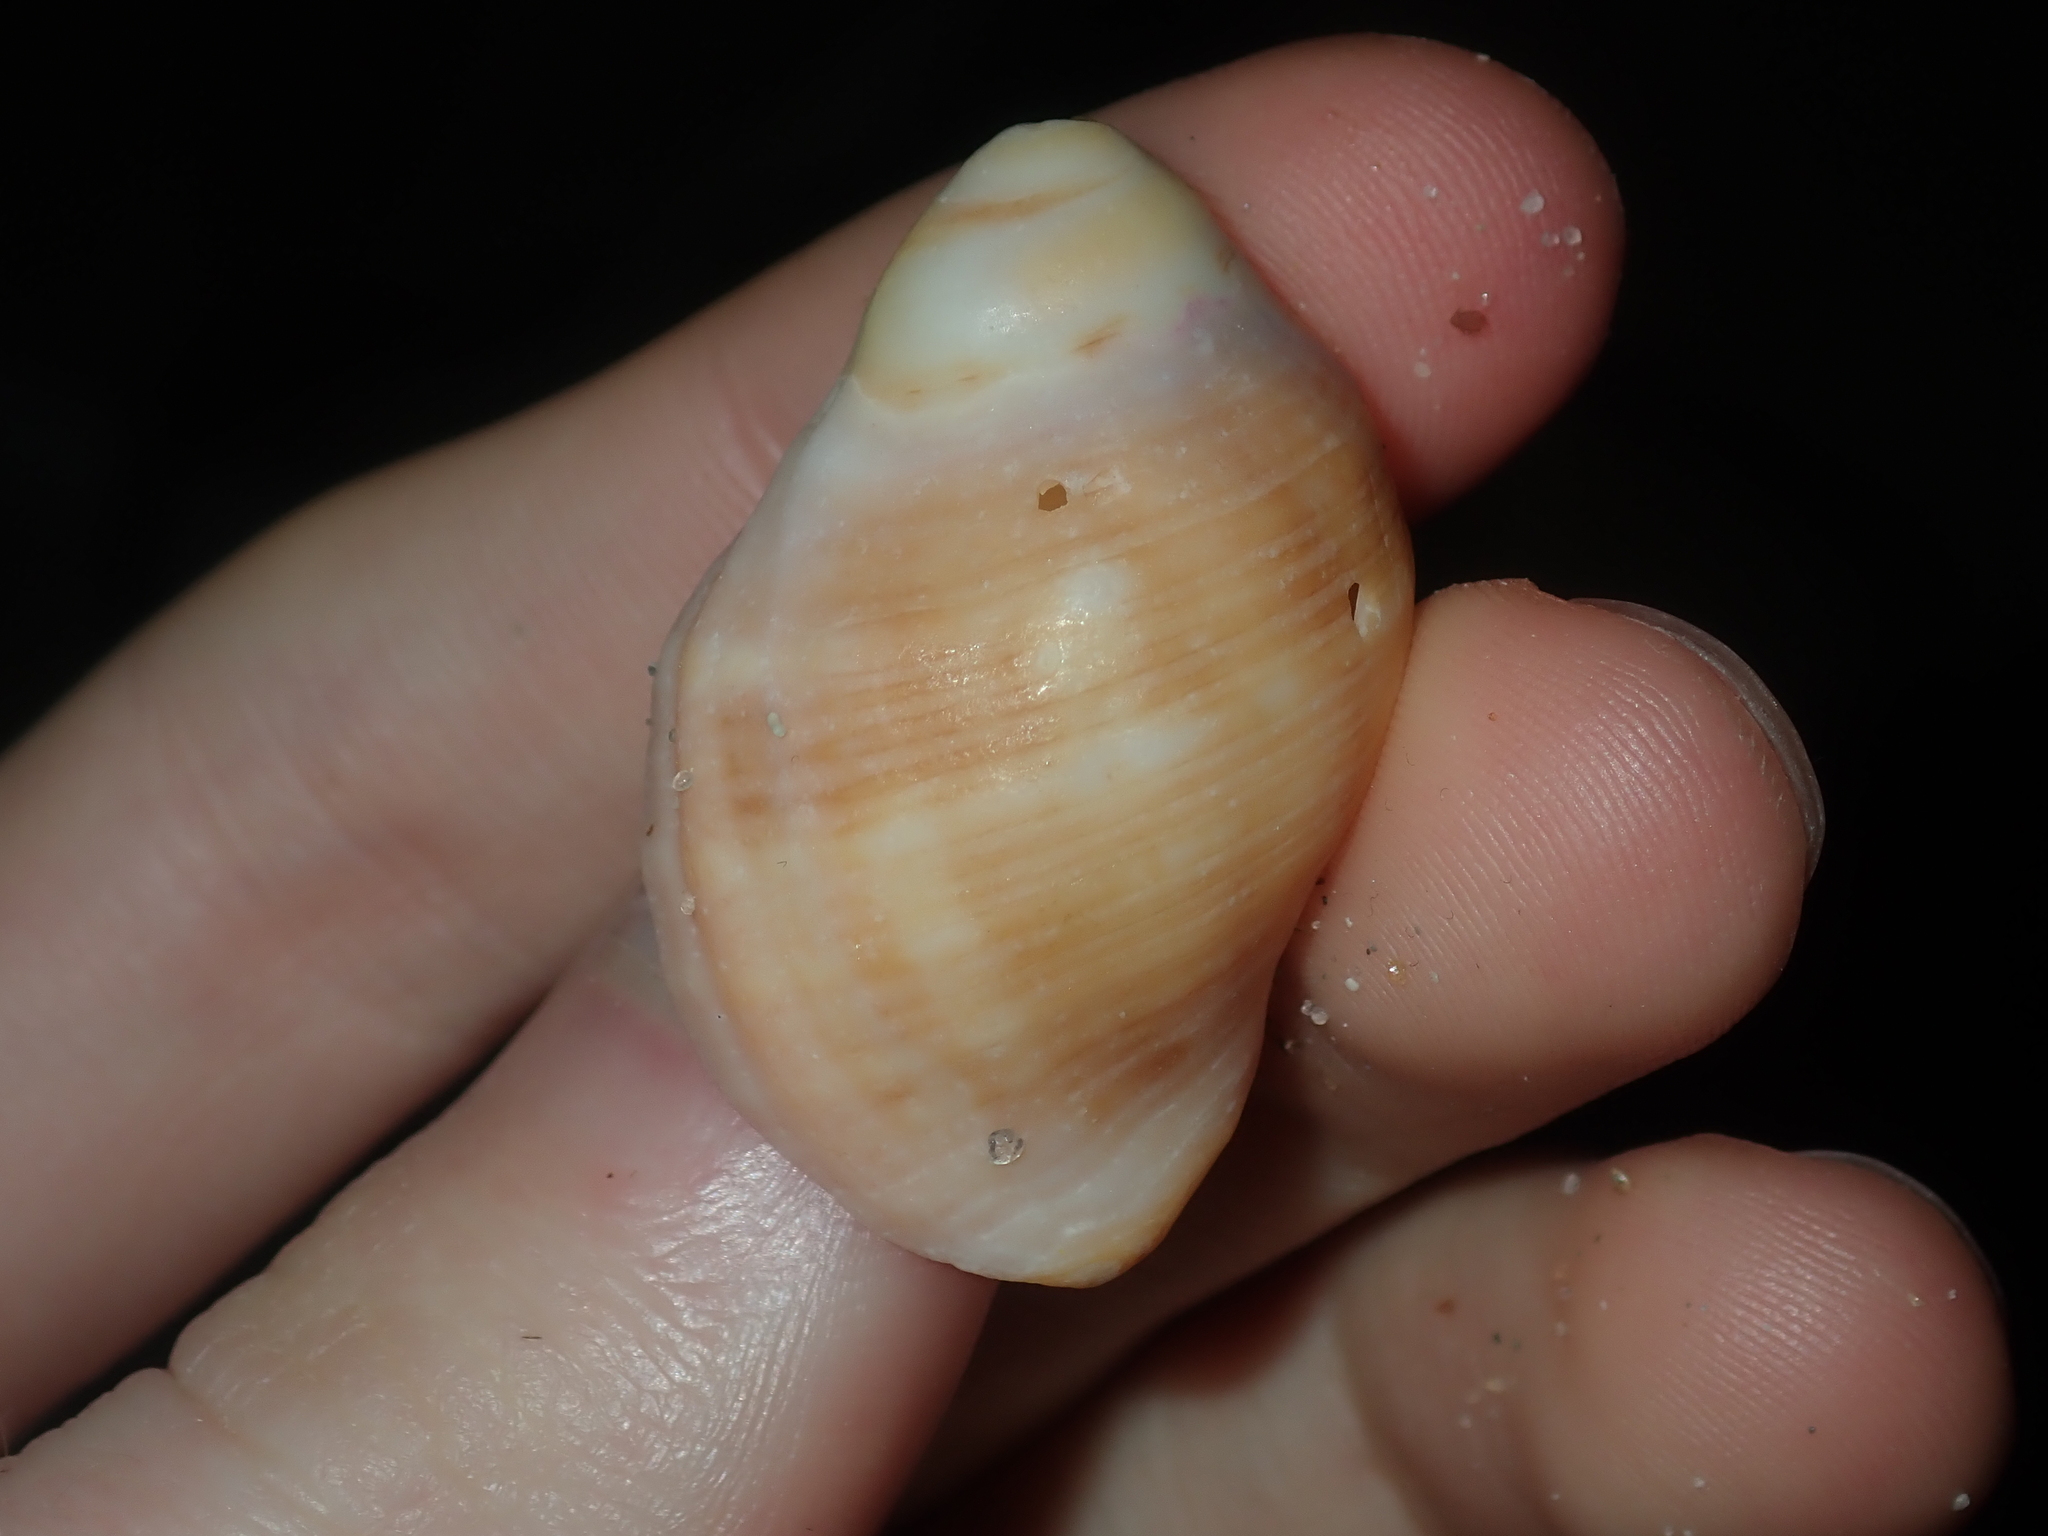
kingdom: Animalia
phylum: Mollusca
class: Gastropoda
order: Neogastropoda
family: Muricidae
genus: Dicathais
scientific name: Dicathais orbita
